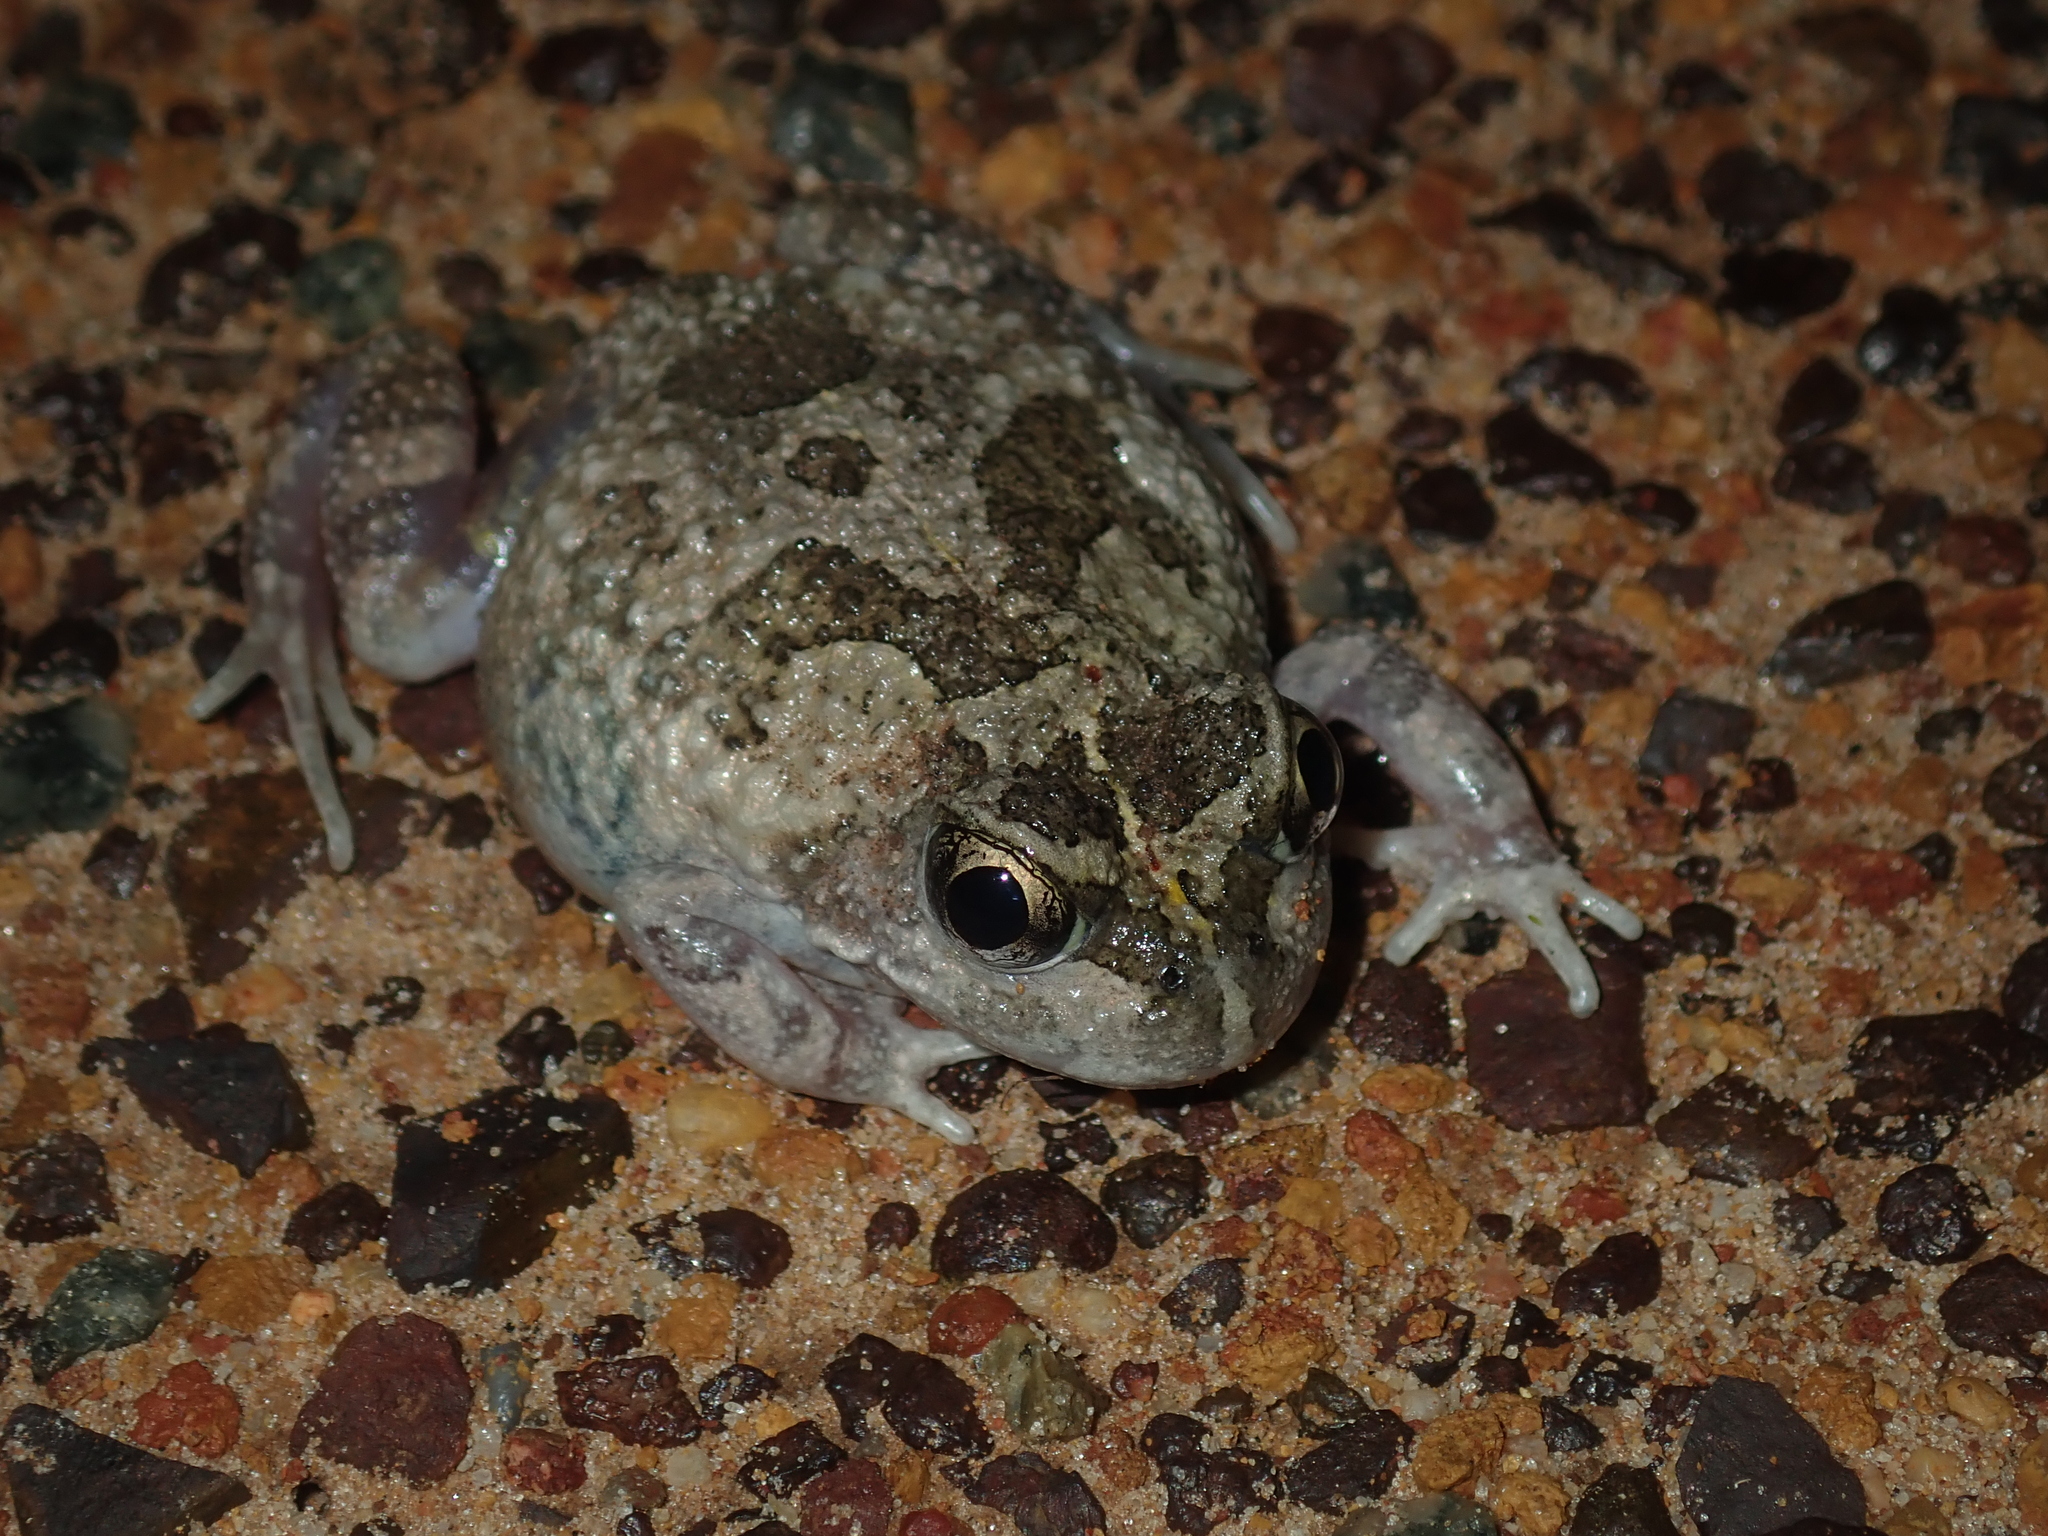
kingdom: Animalia
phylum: Chordata
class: Amphibia
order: Anura
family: Limnodynastidae
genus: Neobatrachus
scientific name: Neobatrachus pelobatoides
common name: Humming frog
